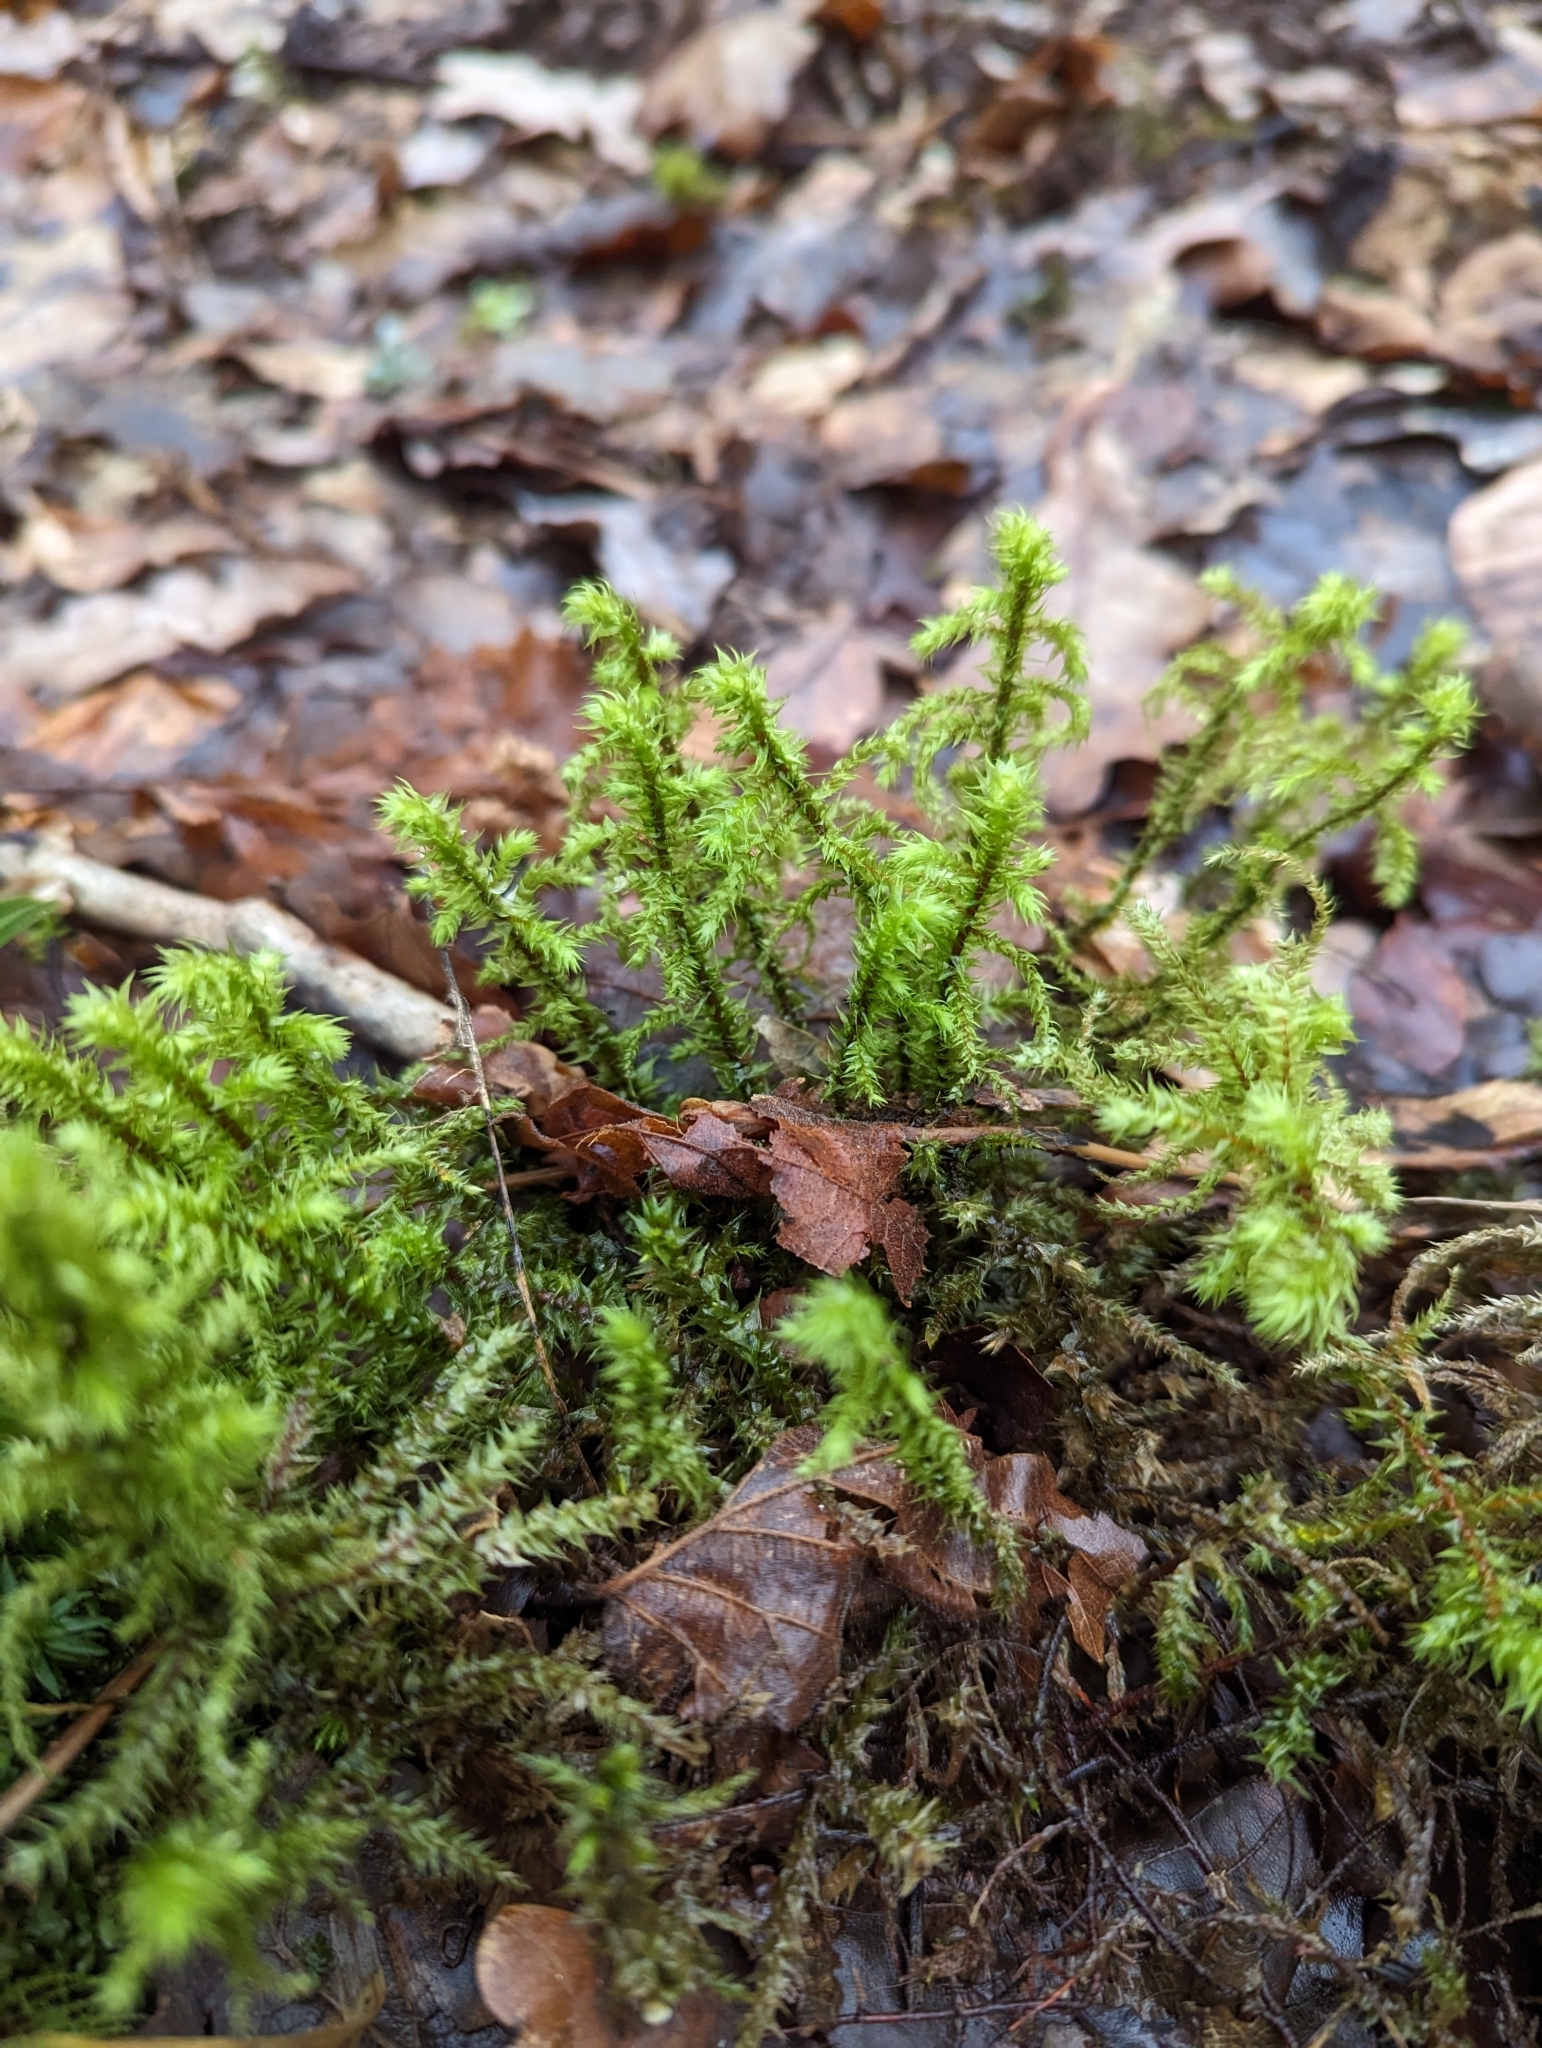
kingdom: Plantae
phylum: Bryophyta
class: Bryopsida
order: Hypnales
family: Hylocomiaceae
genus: Hylocomiadelphus
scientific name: Hylocomiadelphus triquetrus
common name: Rough goose neck moss
